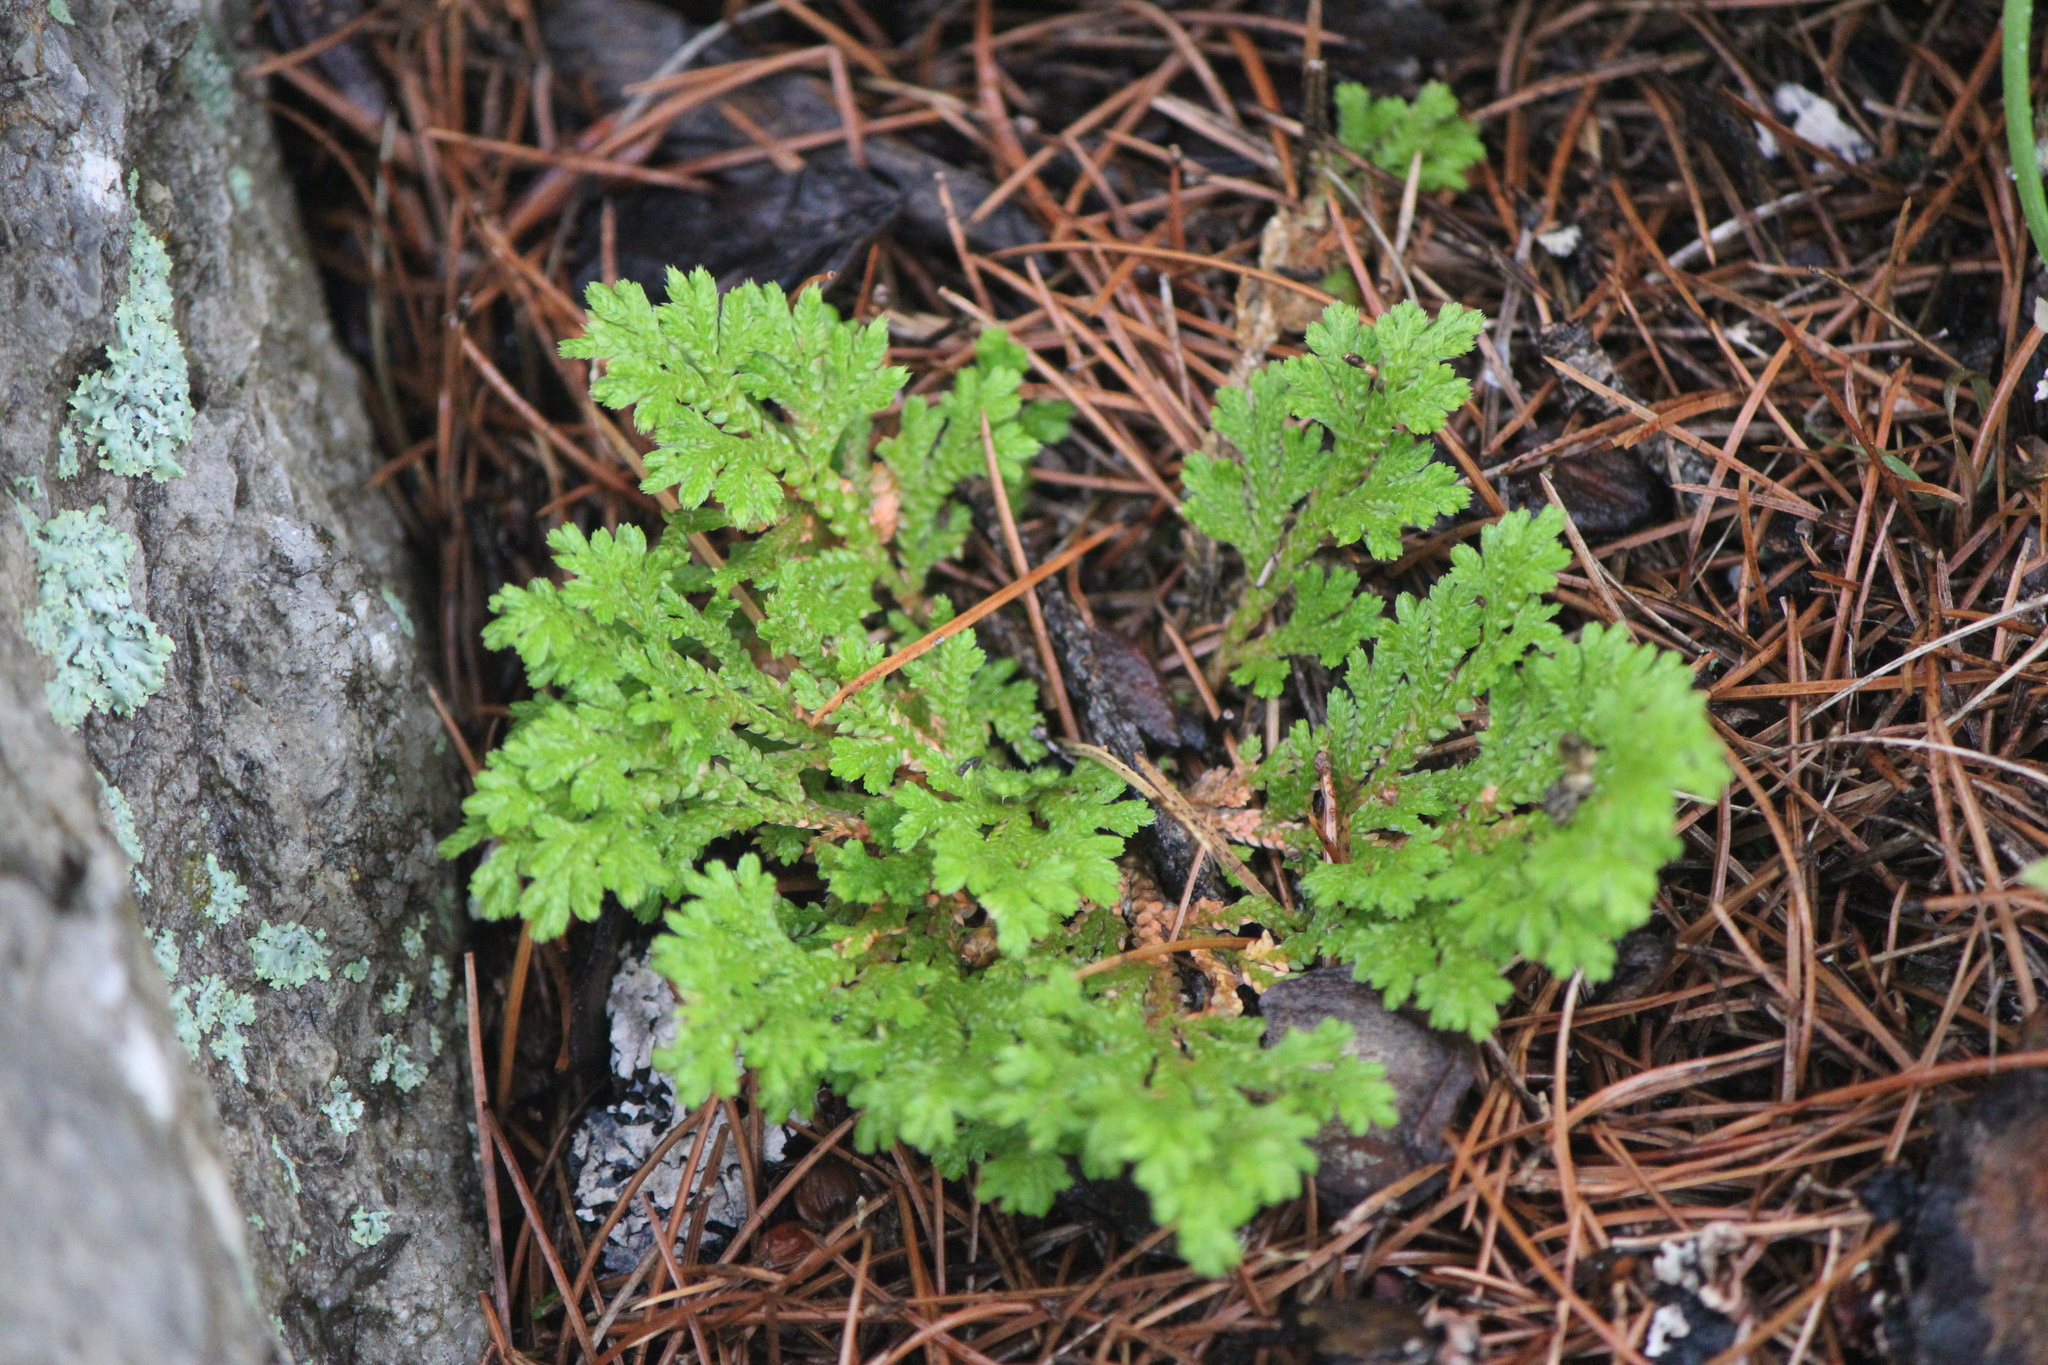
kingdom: Plantae
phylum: Tracheophyta
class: Lycopodiopsida
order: Selaginellales
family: Selaginellaceae
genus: Selaginella
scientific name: Selaginella pallescens
